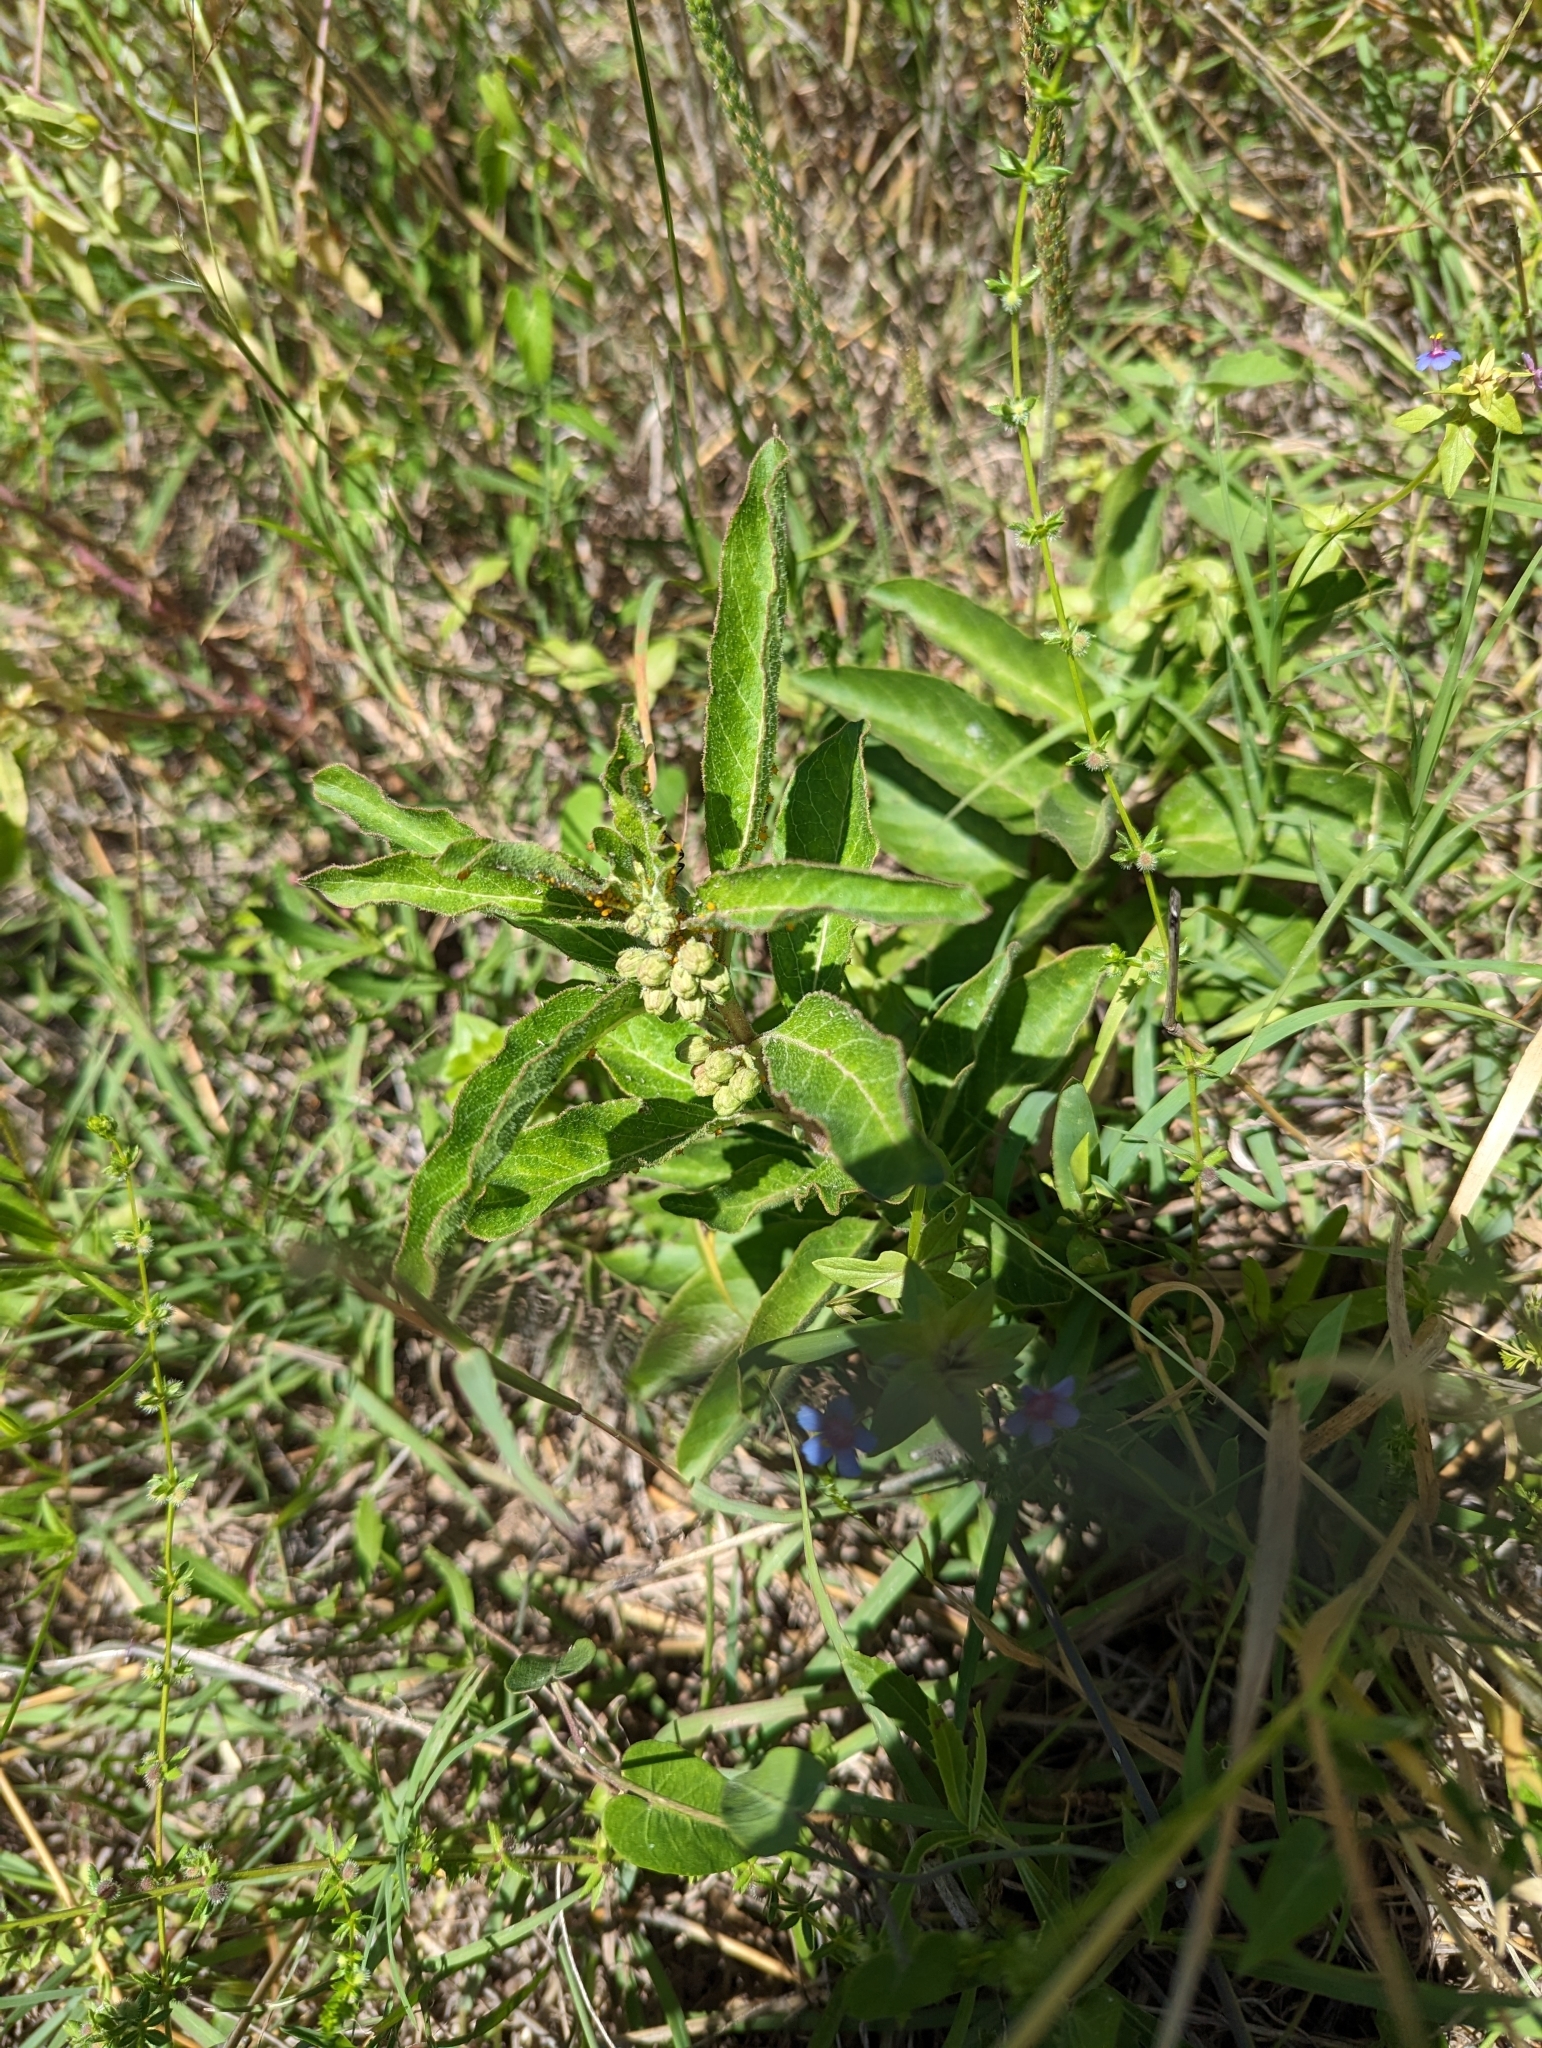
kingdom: Plantae
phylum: Tracheophyta
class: Magnoliopsida
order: Gentianales
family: Apocynaceae
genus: Asclepias
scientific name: Asclepias oenotheroides
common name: Zizotes milkweed
